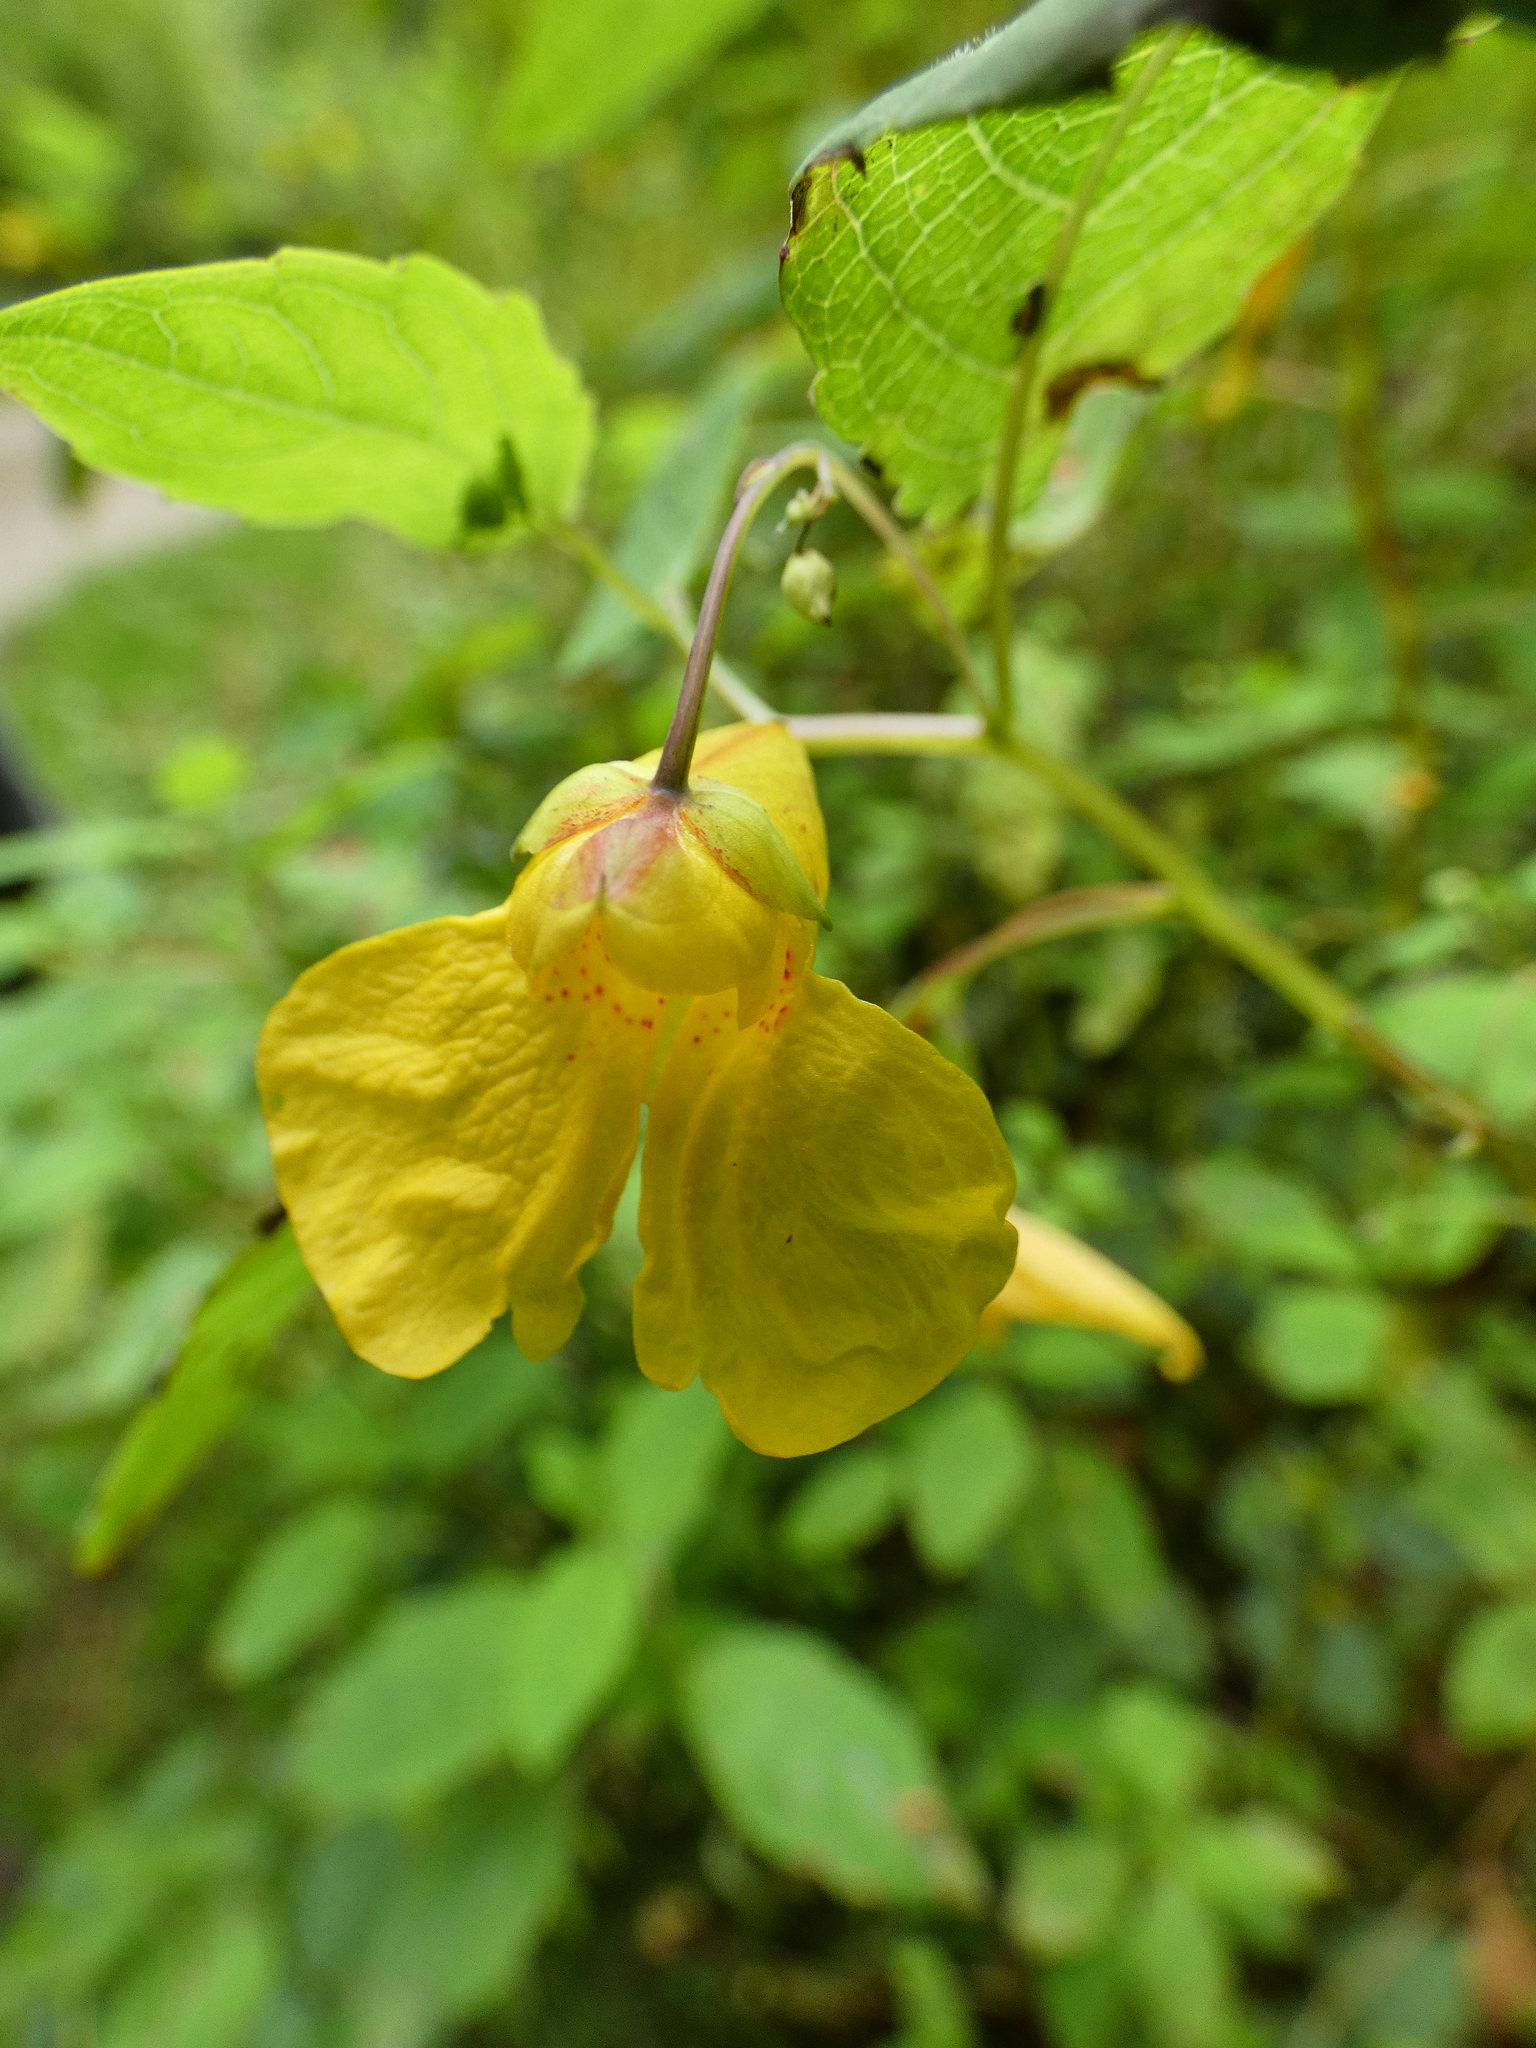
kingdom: Plantae
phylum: Tracheophyta
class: Magnoliopsida
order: Ericales
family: Balsaminaceae
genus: Impatiens
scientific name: Impatiens noli-tangere
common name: Touch-me-not balsam
